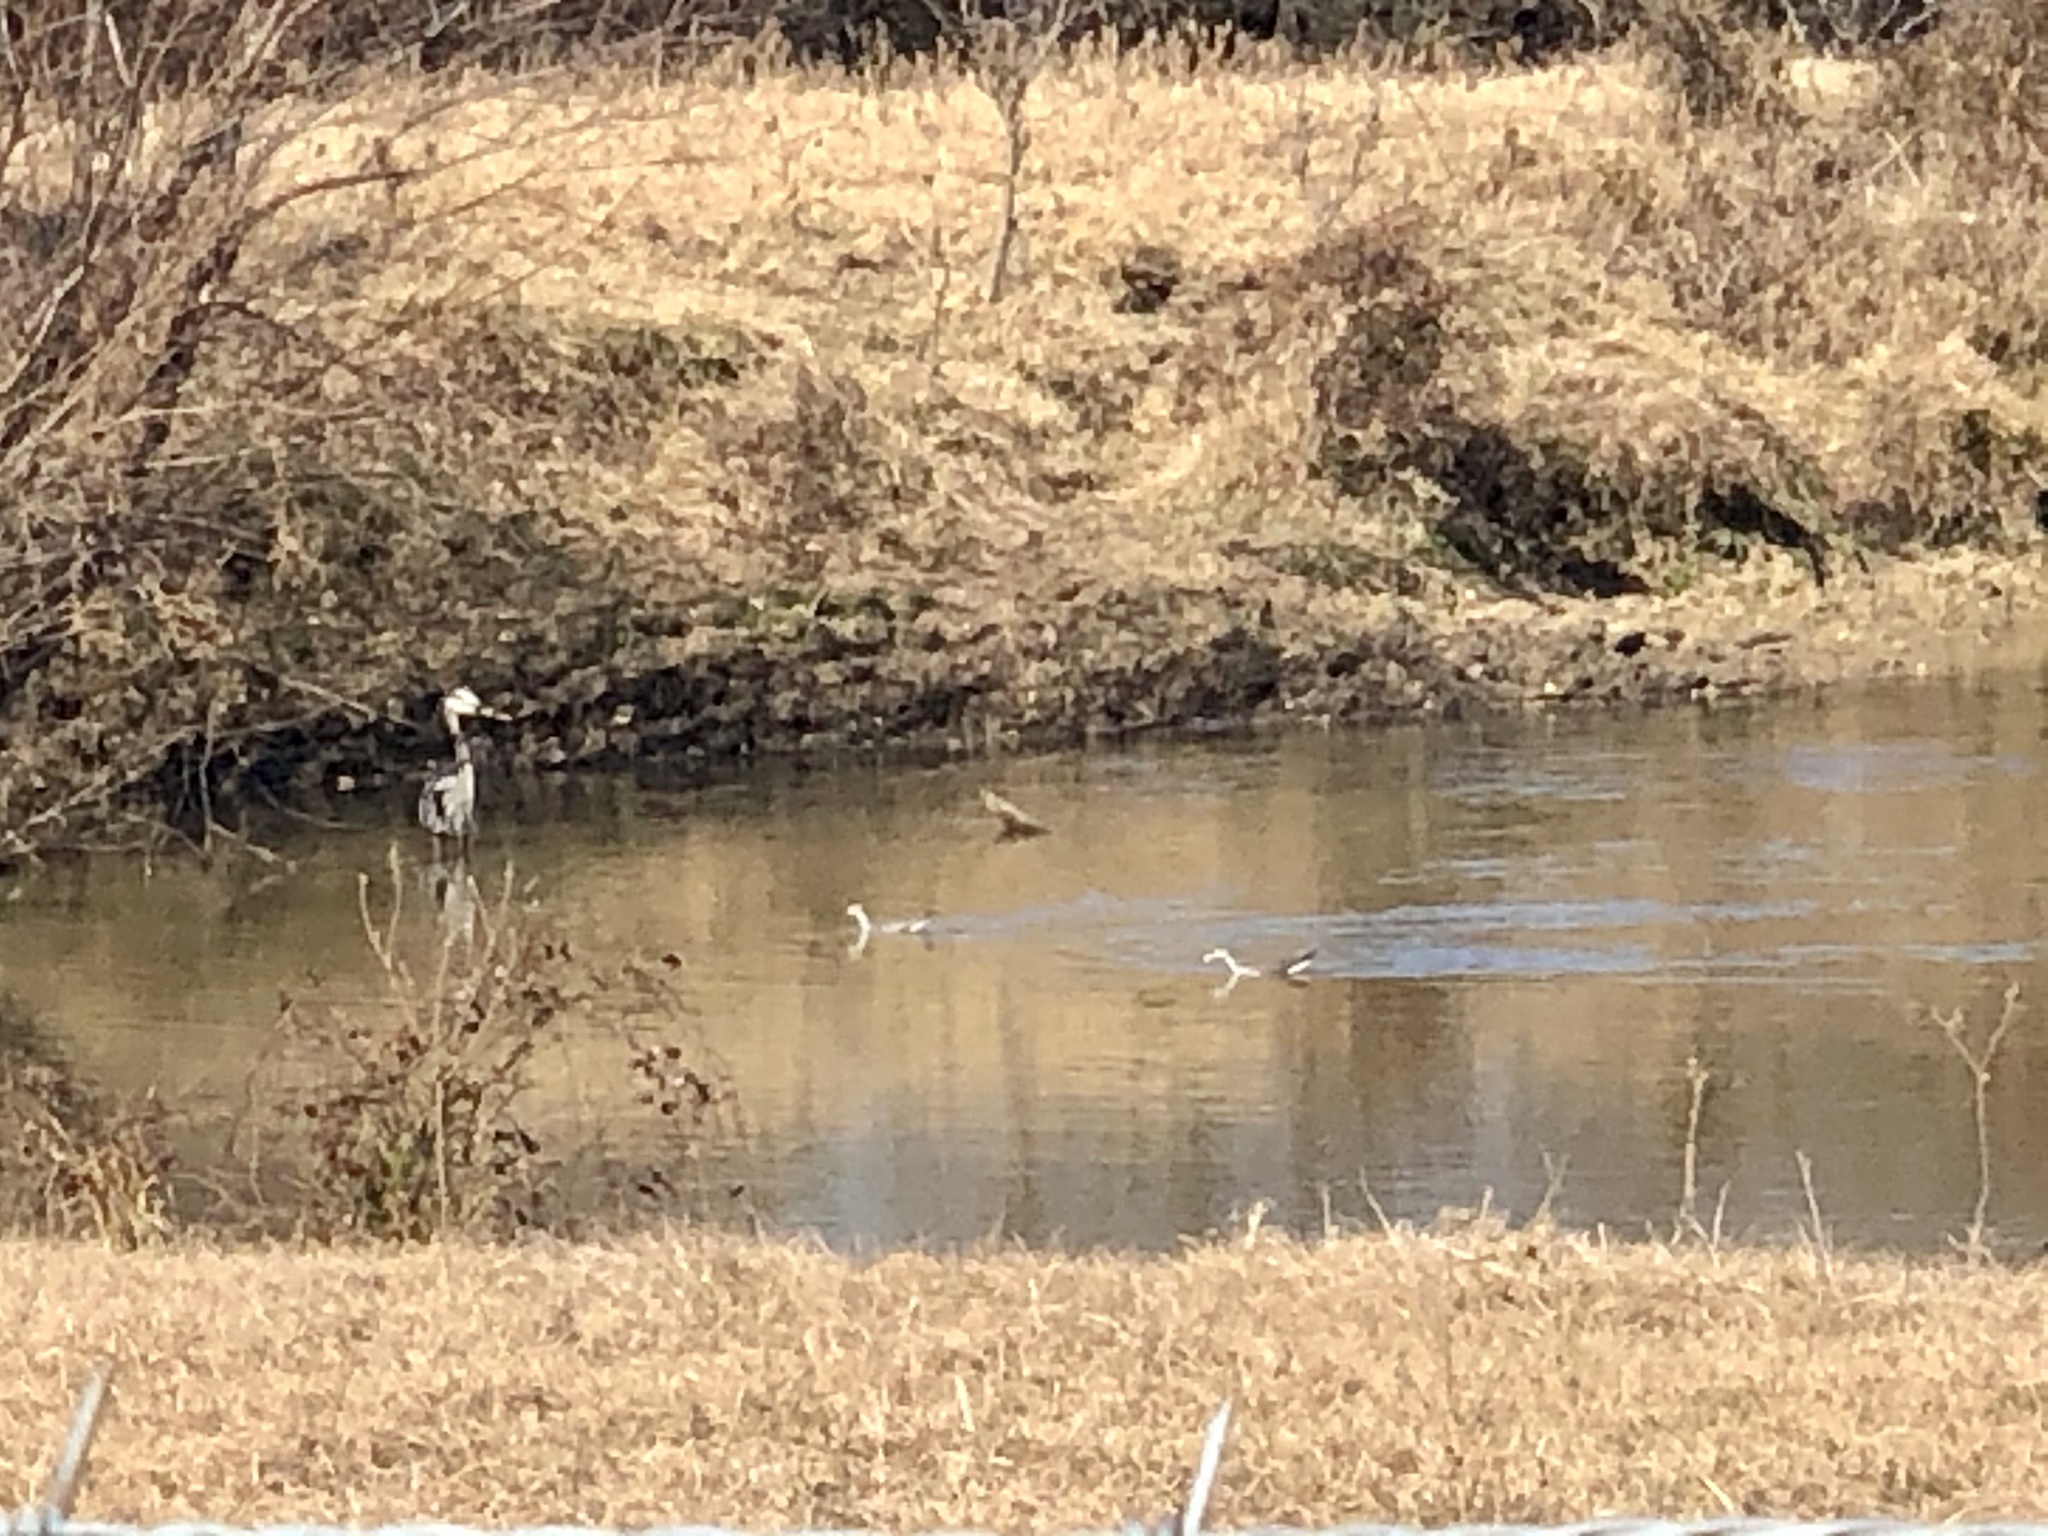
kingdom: Animalia
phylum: Chordata
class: Aves
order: Charadriiformes
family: Scolopacidae
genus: Tringa
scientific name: Tringa melanoleuca
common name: Greater yellowlegs
